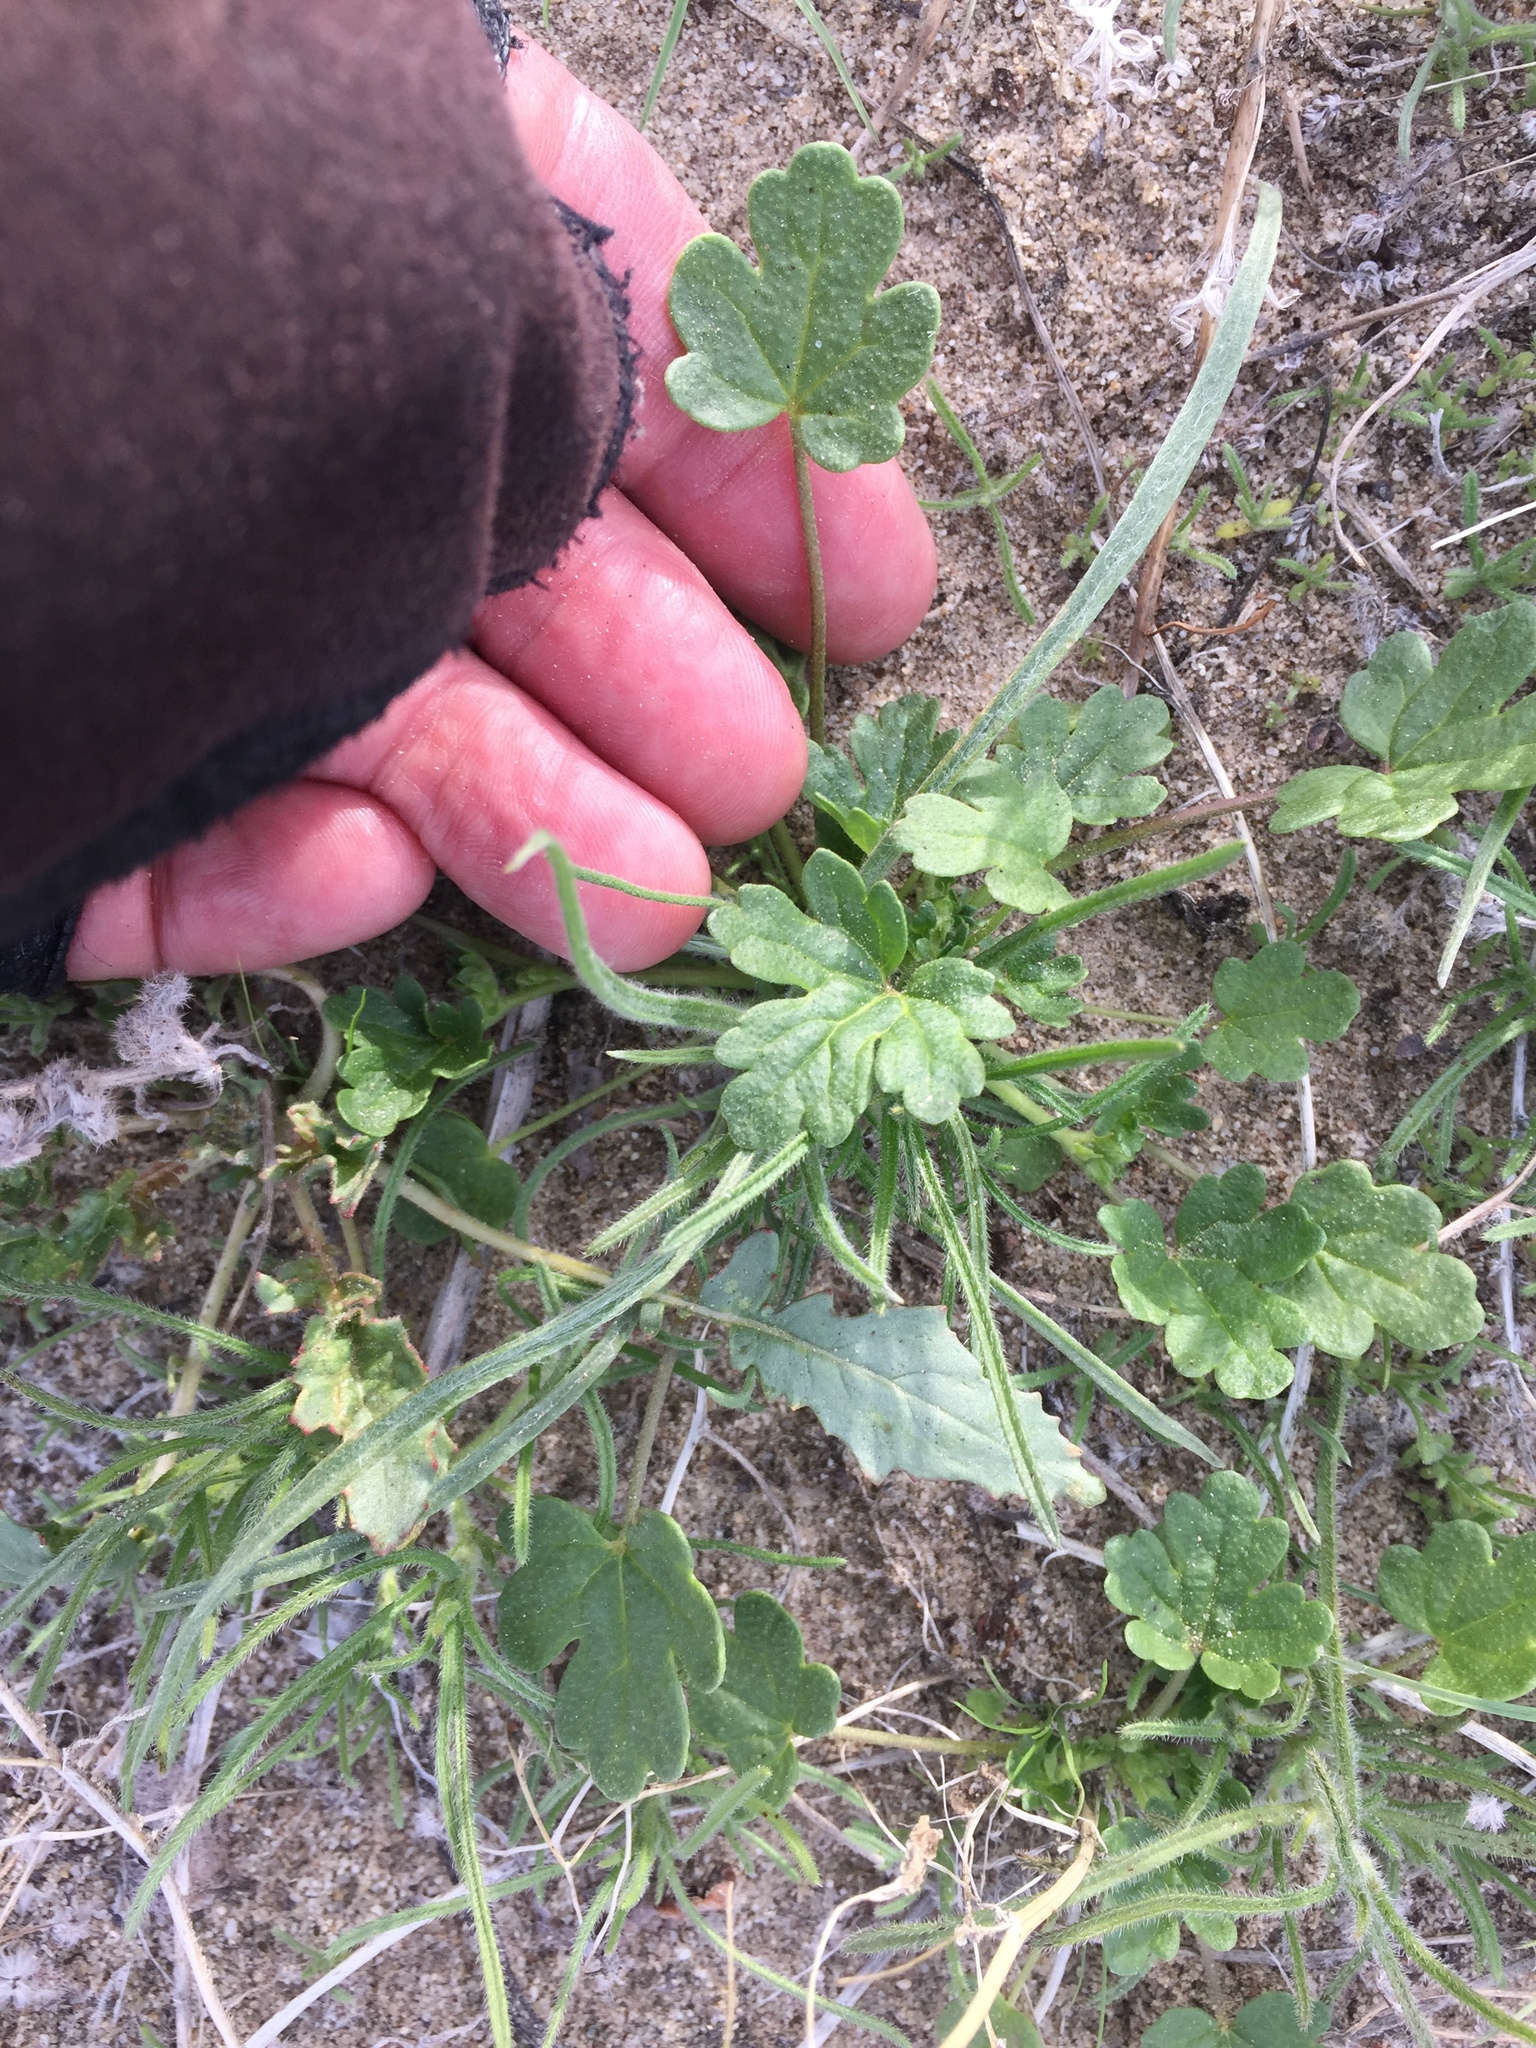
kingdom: Plantae
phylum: Tracheophyta
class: Magnoliopsida
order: Malvales
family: Malvaceae
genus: Eremalche
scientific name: Eremalche exilis
